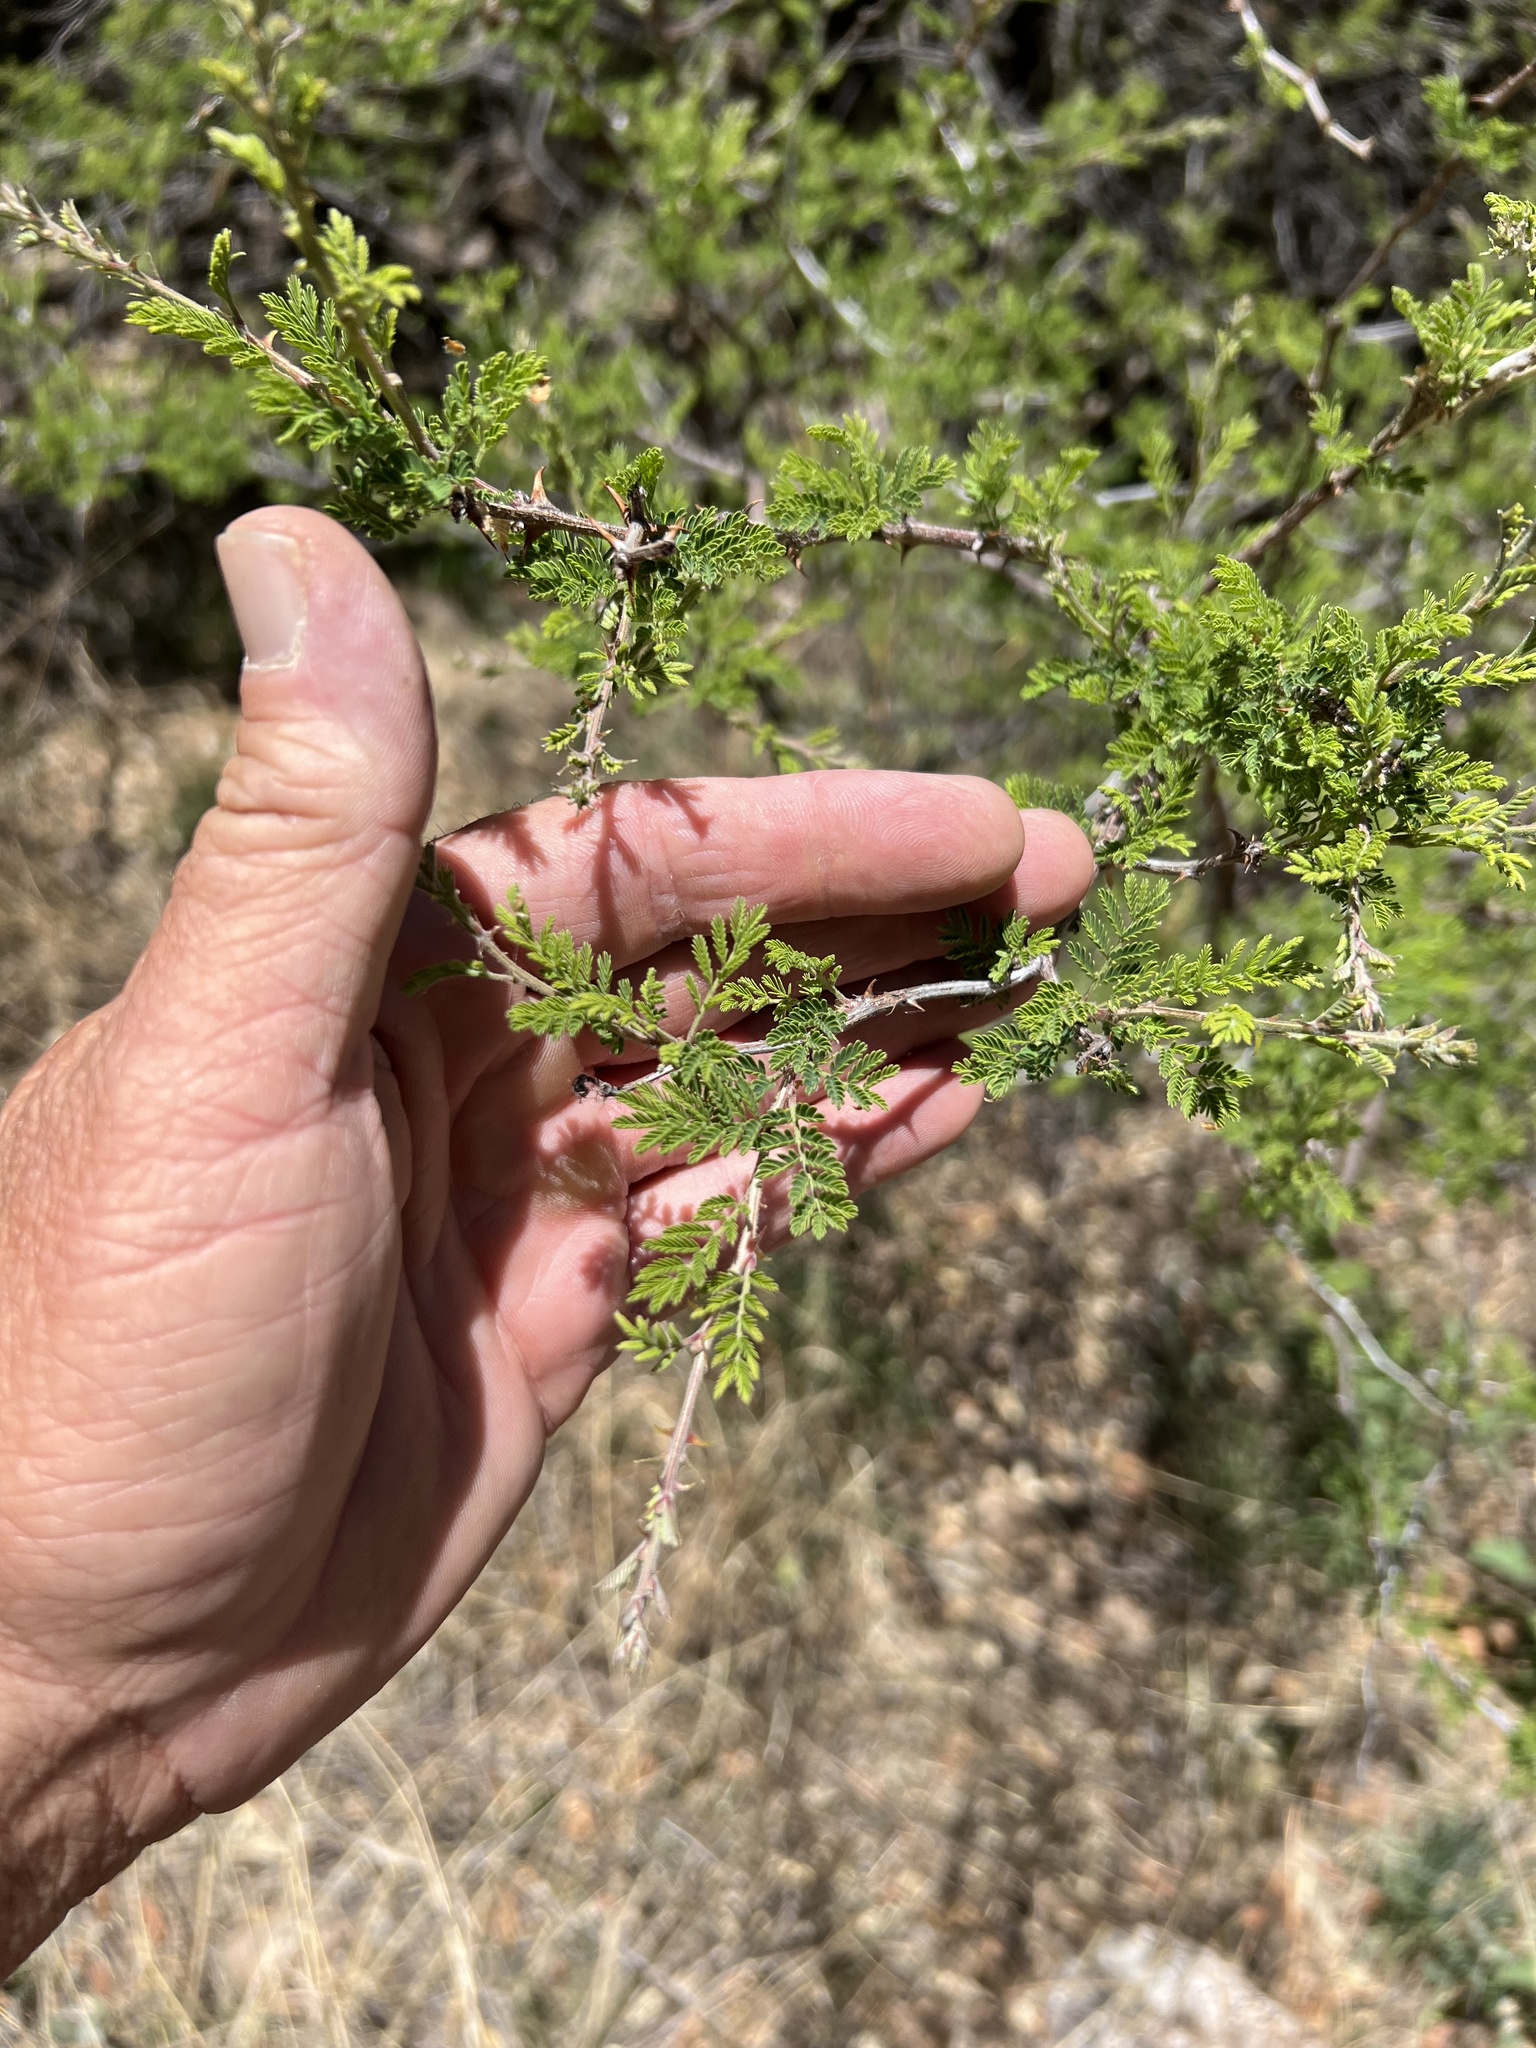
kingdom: Plantae
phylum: Tracheophyta
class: Magnoliopsida
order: Fabales
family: Fabaceae
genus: Mimosa
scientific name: Mimosa aculeaticarpa
